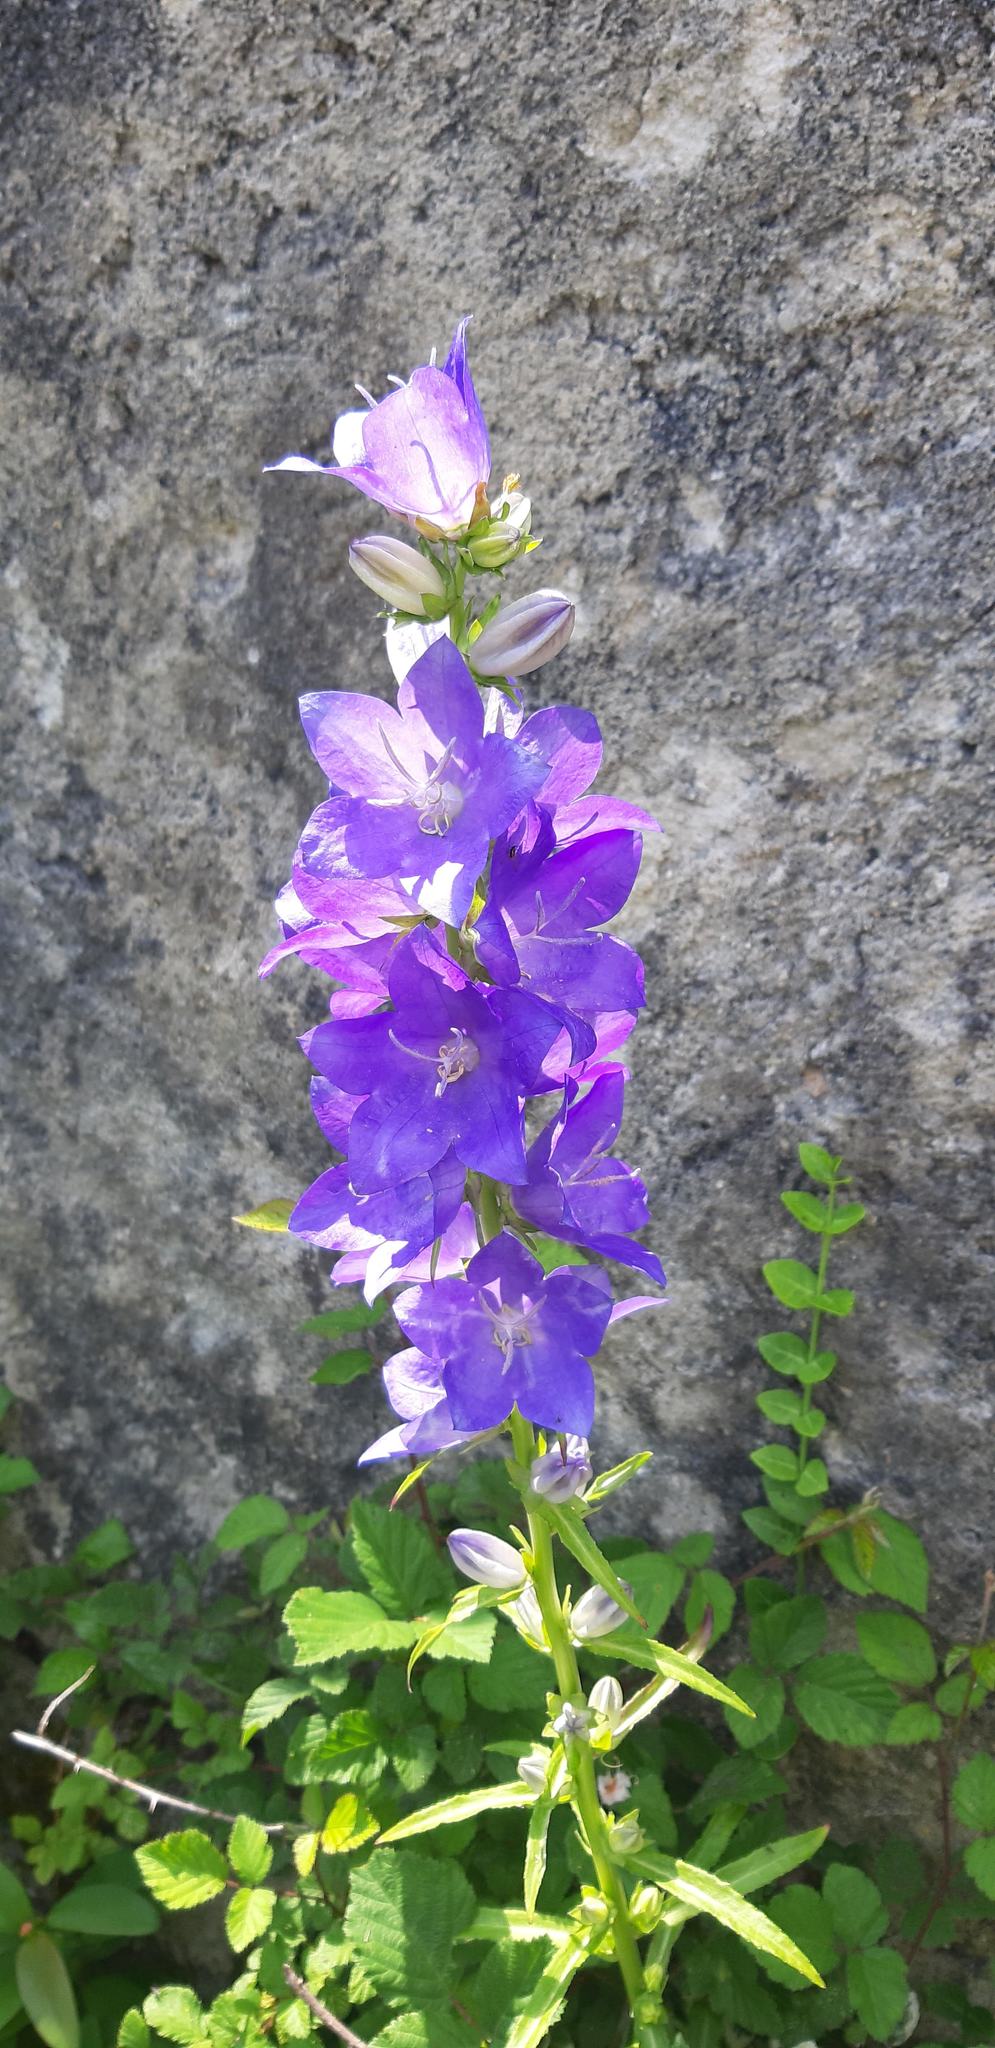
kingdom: Plantae
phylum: Tracheophyta
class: Magnoliopsida
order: Asterales
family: Campanulaceae
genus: Campanula
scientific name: Campanula persicifolia
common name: Peach-leaved bellflower
